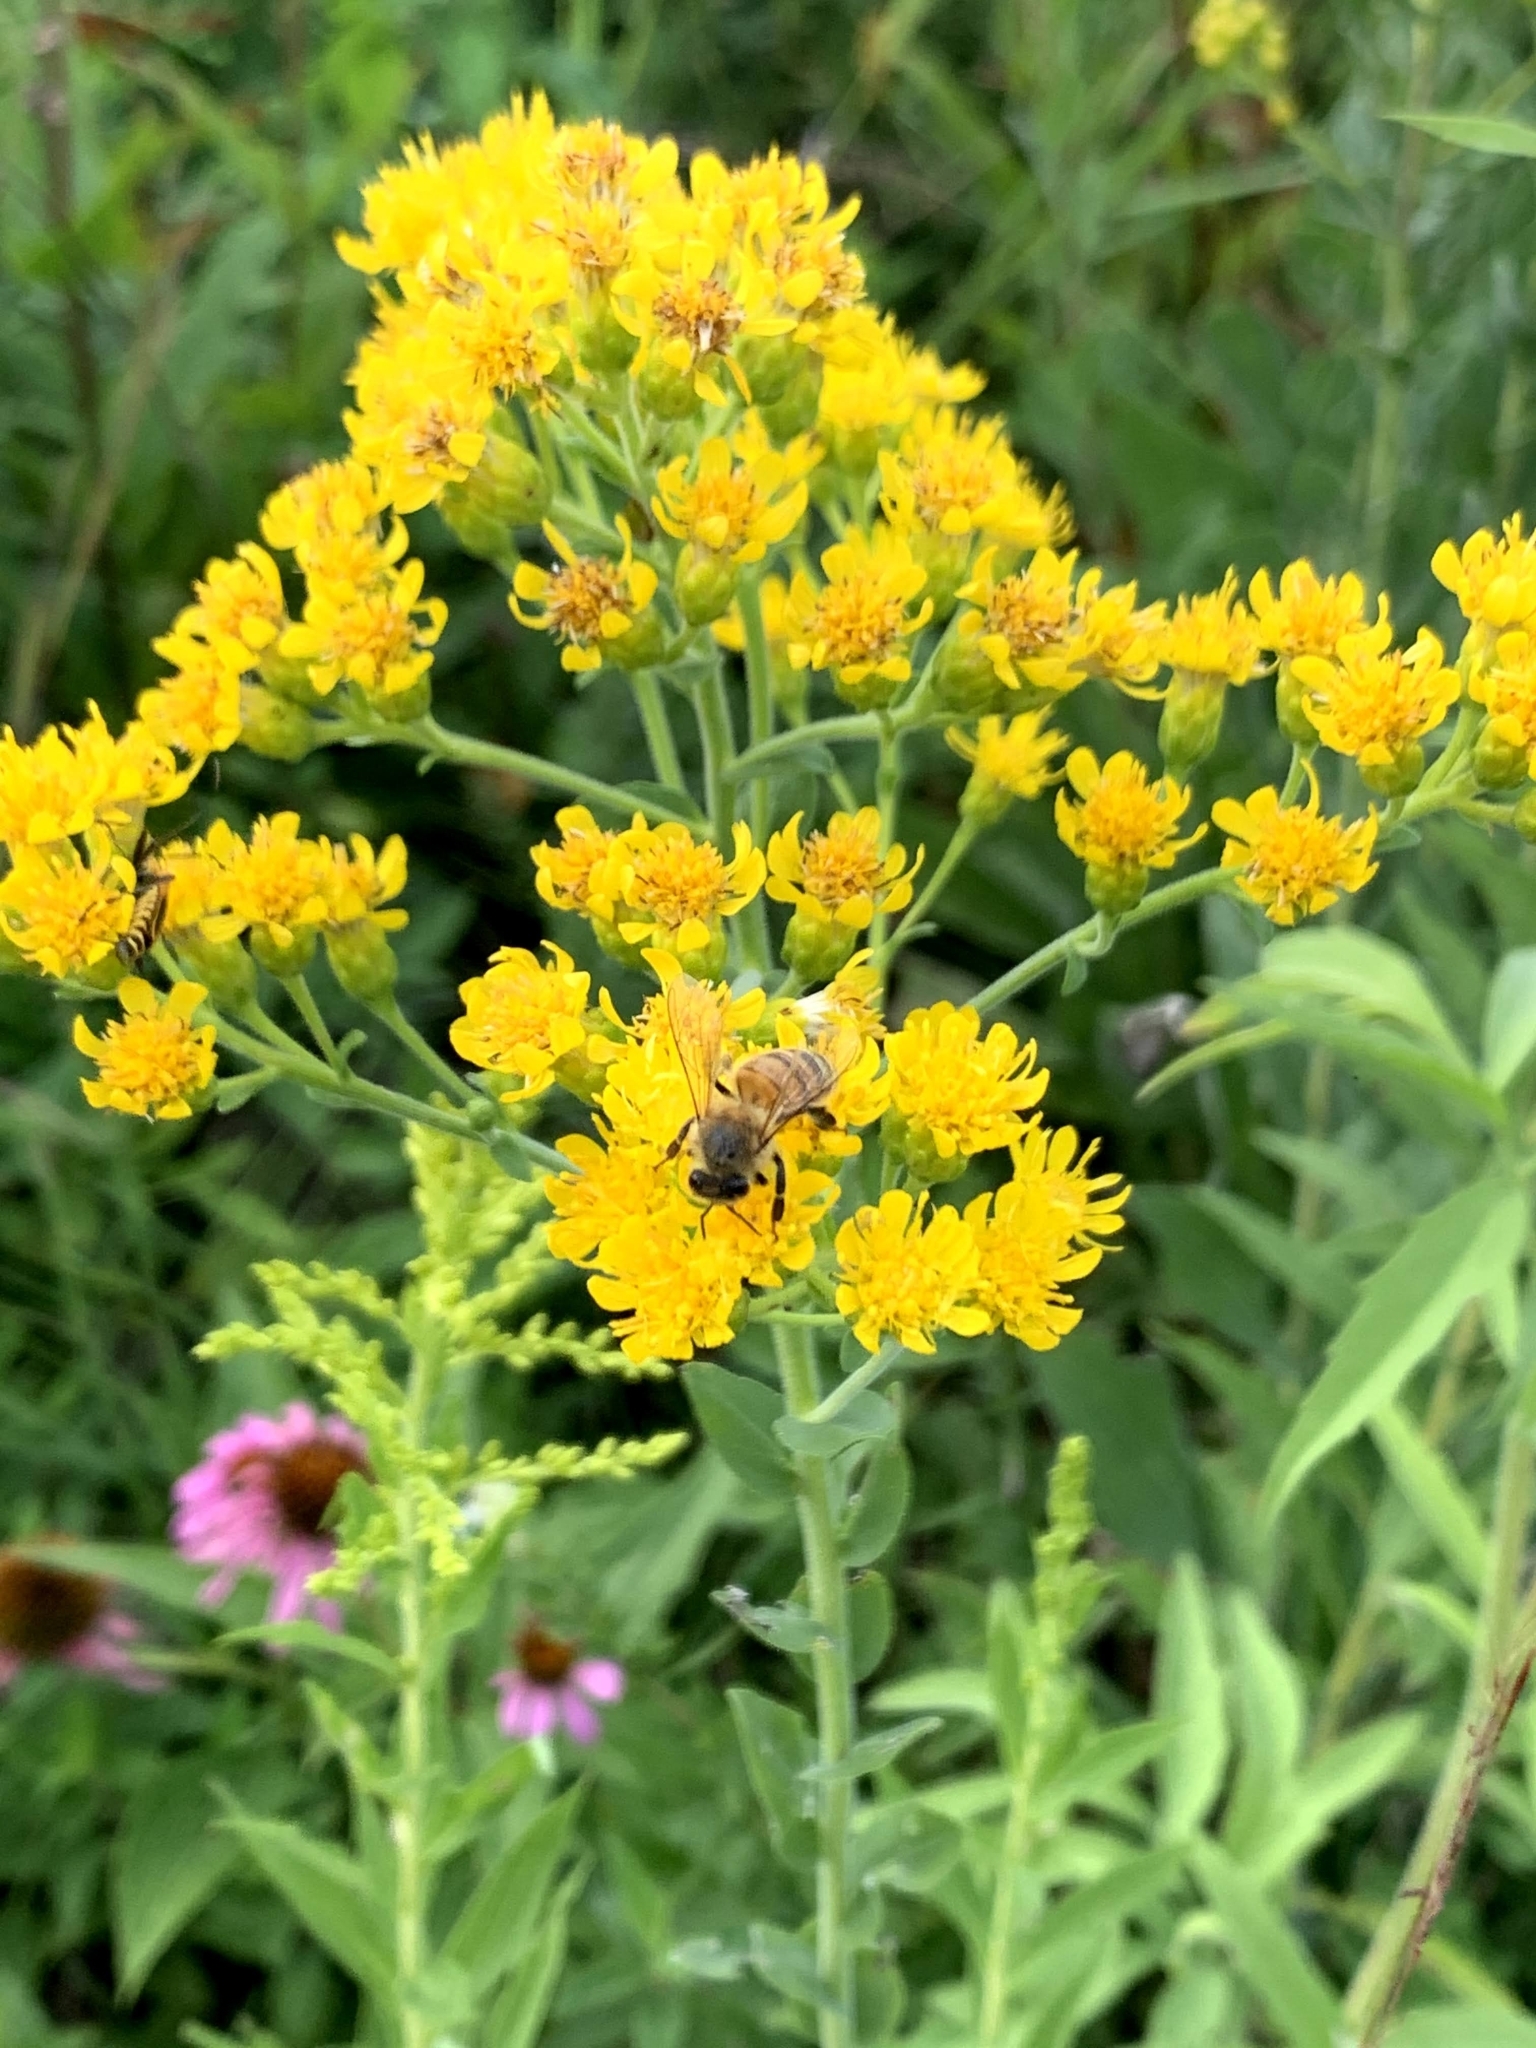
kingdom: Animalia
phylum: Arthropoda
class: Insecta
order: Hymenoptera
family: Apidae
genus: Apis
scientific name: Apis mellifera
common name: Honey bee
